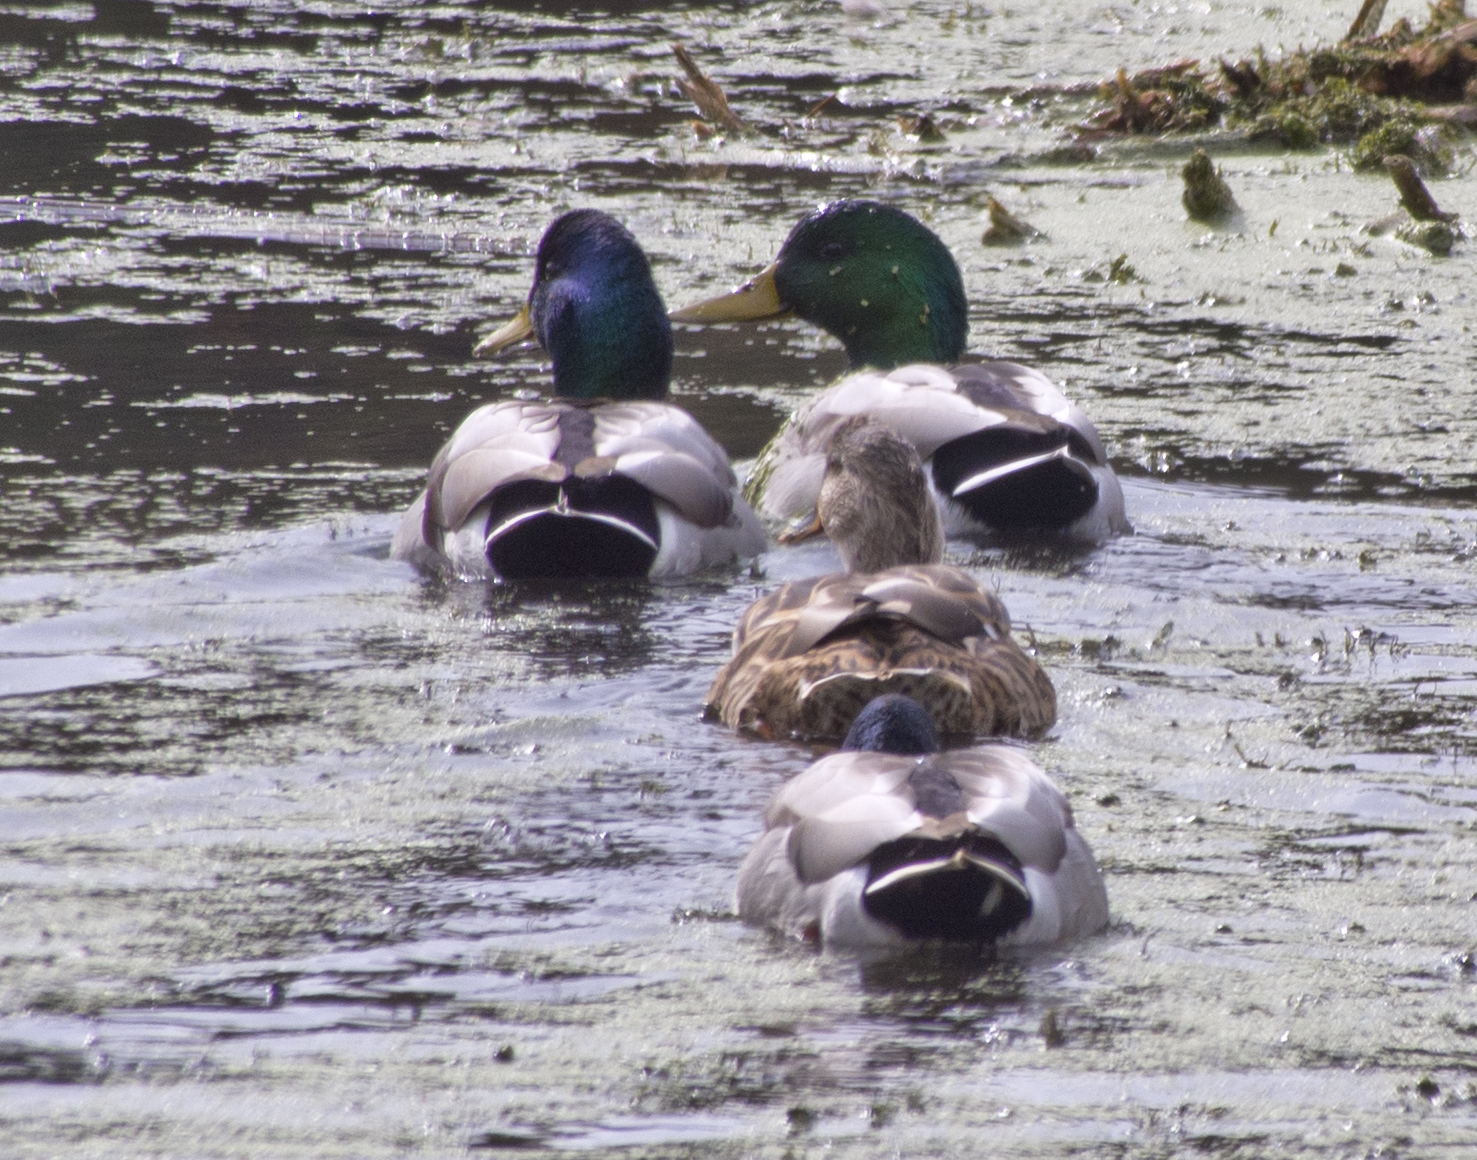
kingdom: Animalia
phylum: Chordata
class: Aves
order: Anseriformes
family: Anatidae
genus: Anas
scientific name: Anas platyrhynchos
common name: Mallard
